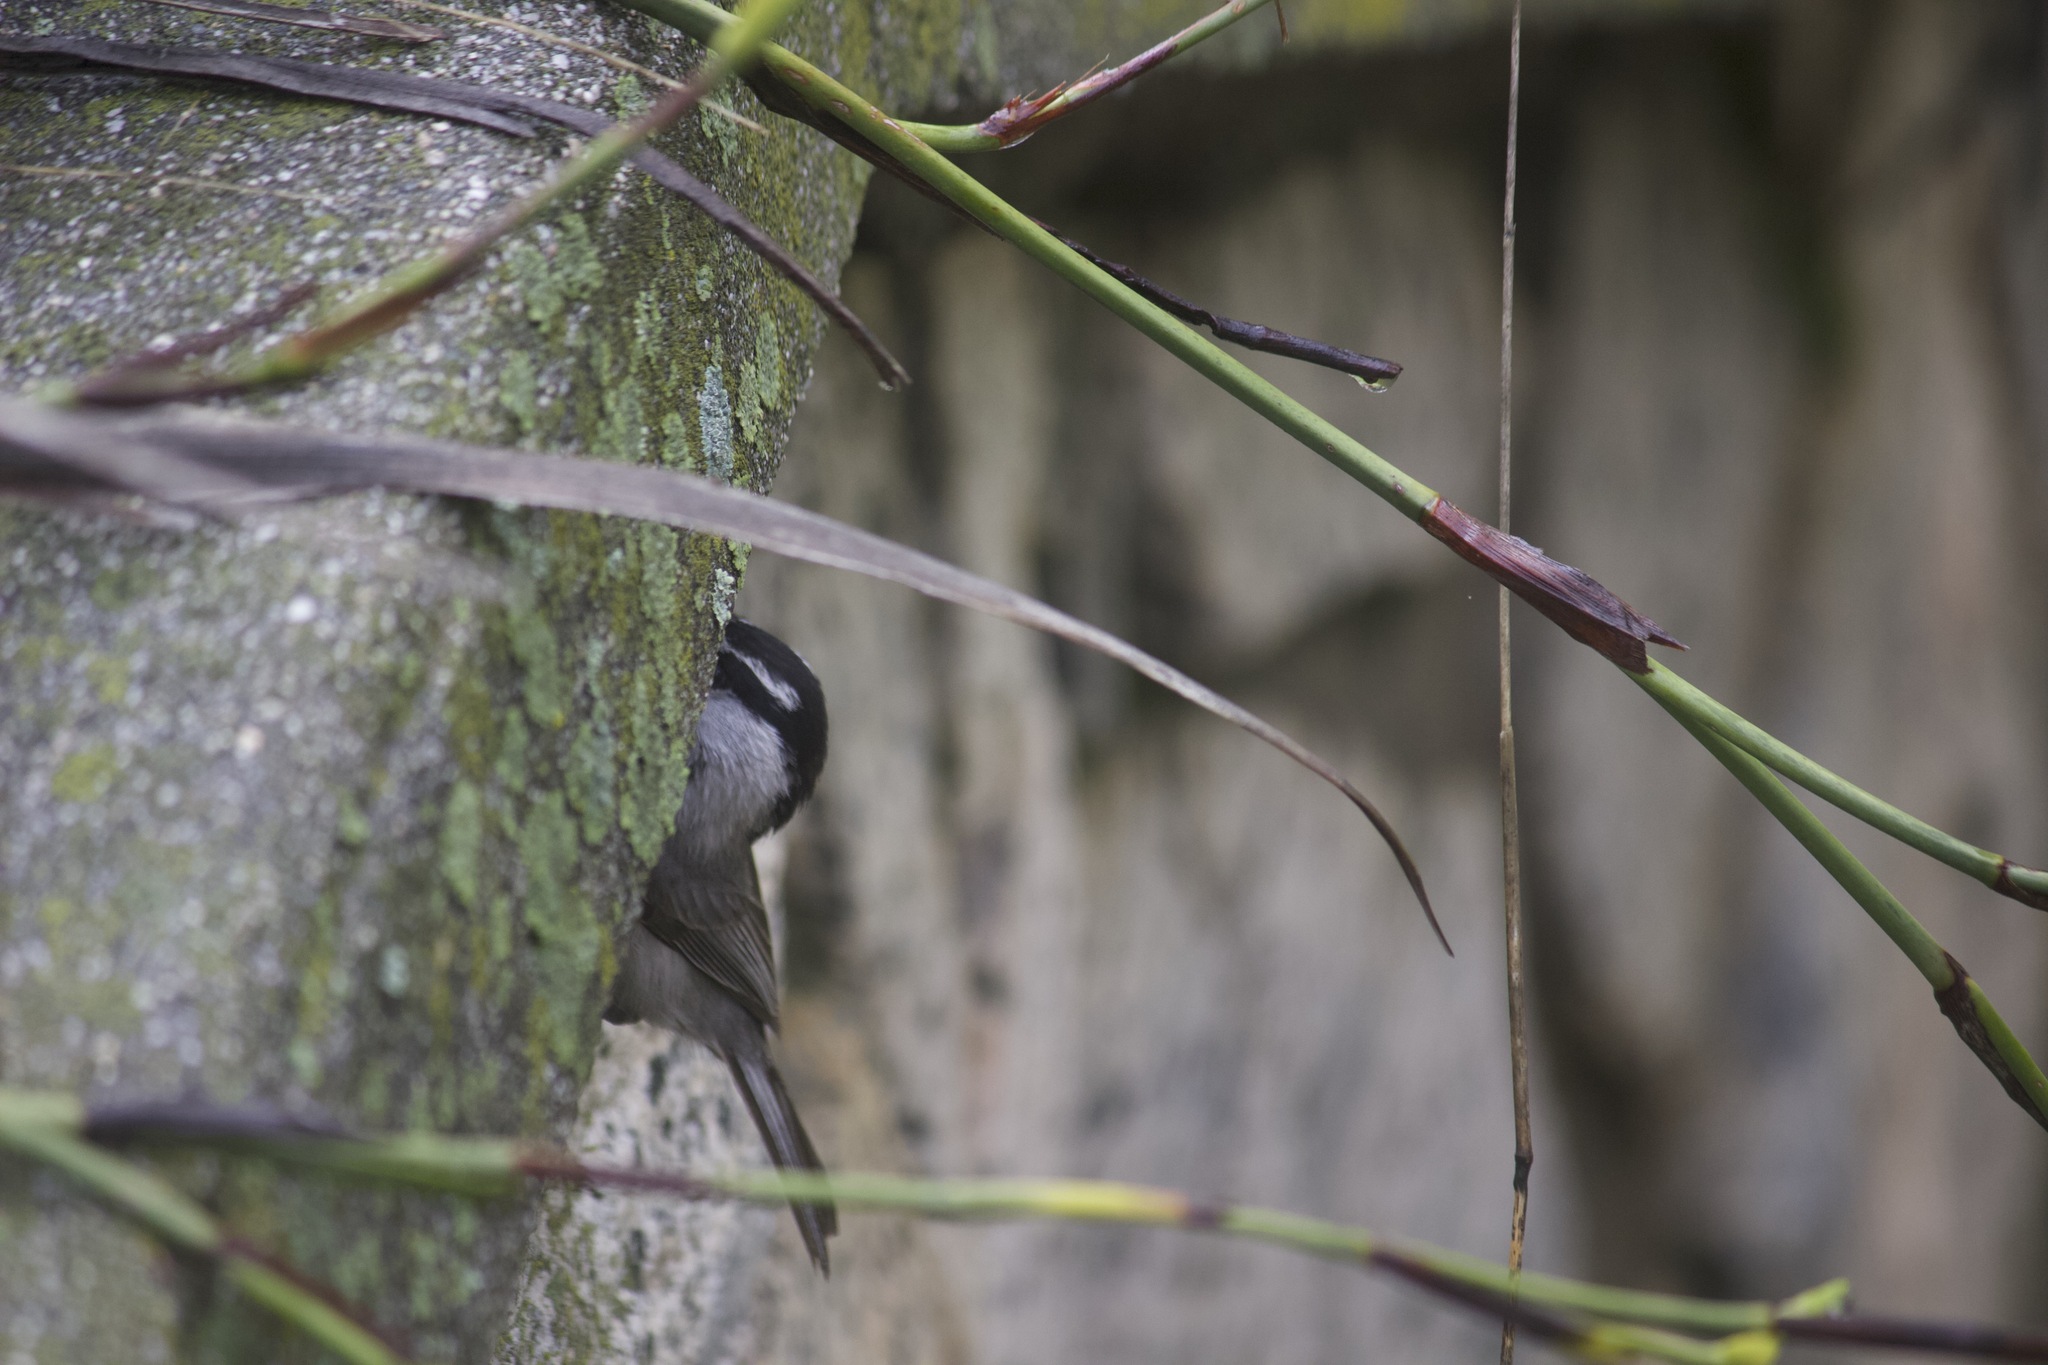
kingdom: Animalia
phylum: Chordata
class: Aves
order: Passeriformes
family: Paridae
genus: Poecile
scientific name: Poecile gambeli
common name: Mountain chickadee
